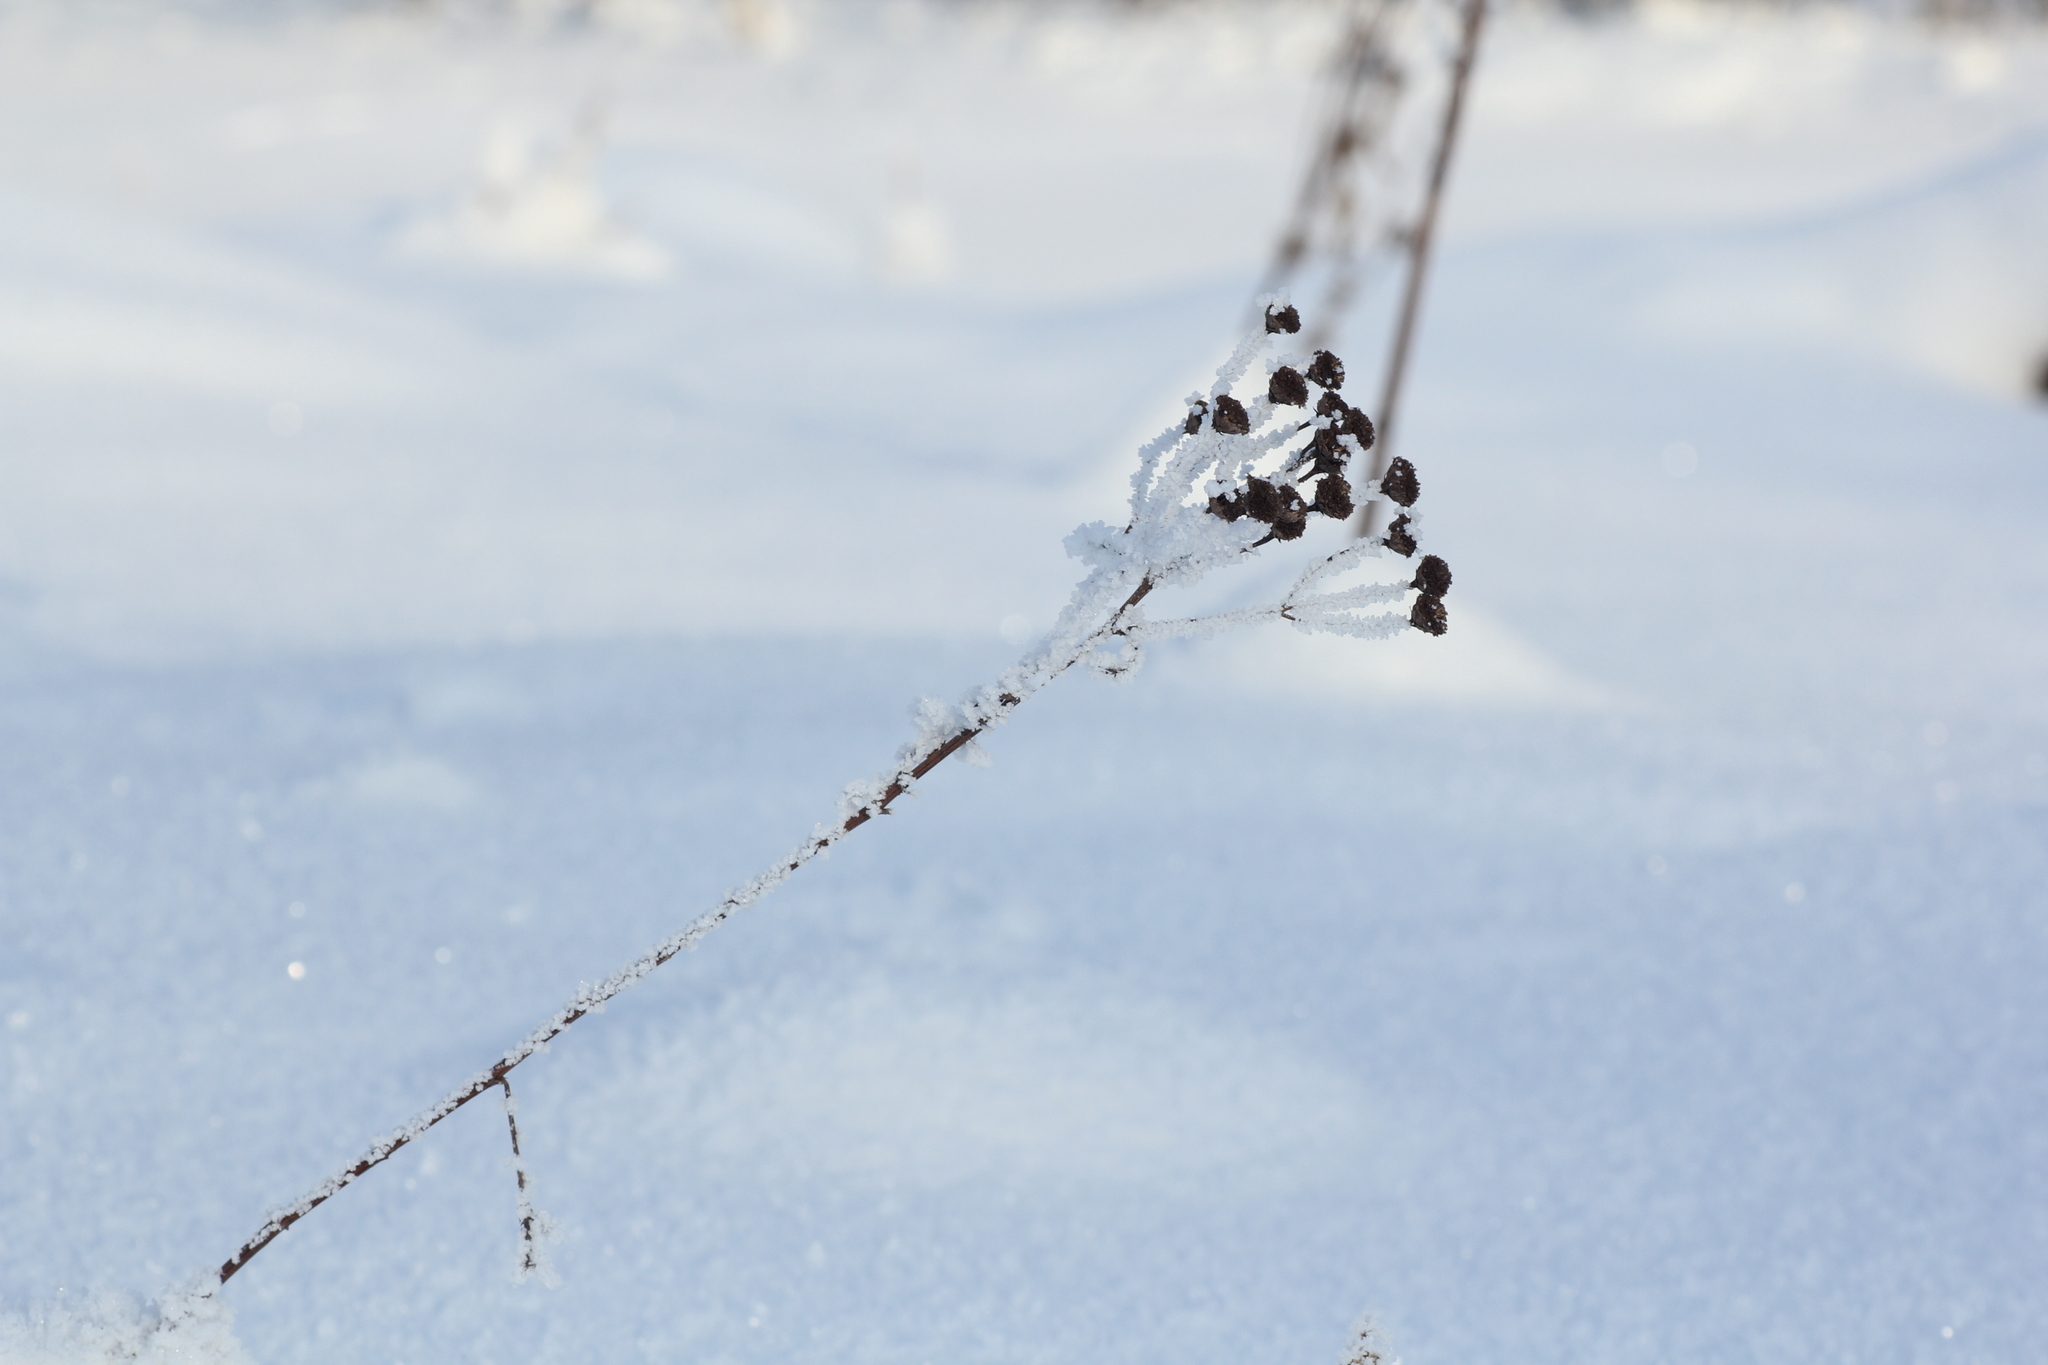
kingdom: Plantae
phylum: Tracheophyta
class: Magnoliopsida
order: Asterales
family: Asteraceae
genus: Tanacetum
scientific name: Tanacetum vulgare
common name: Common tansy
